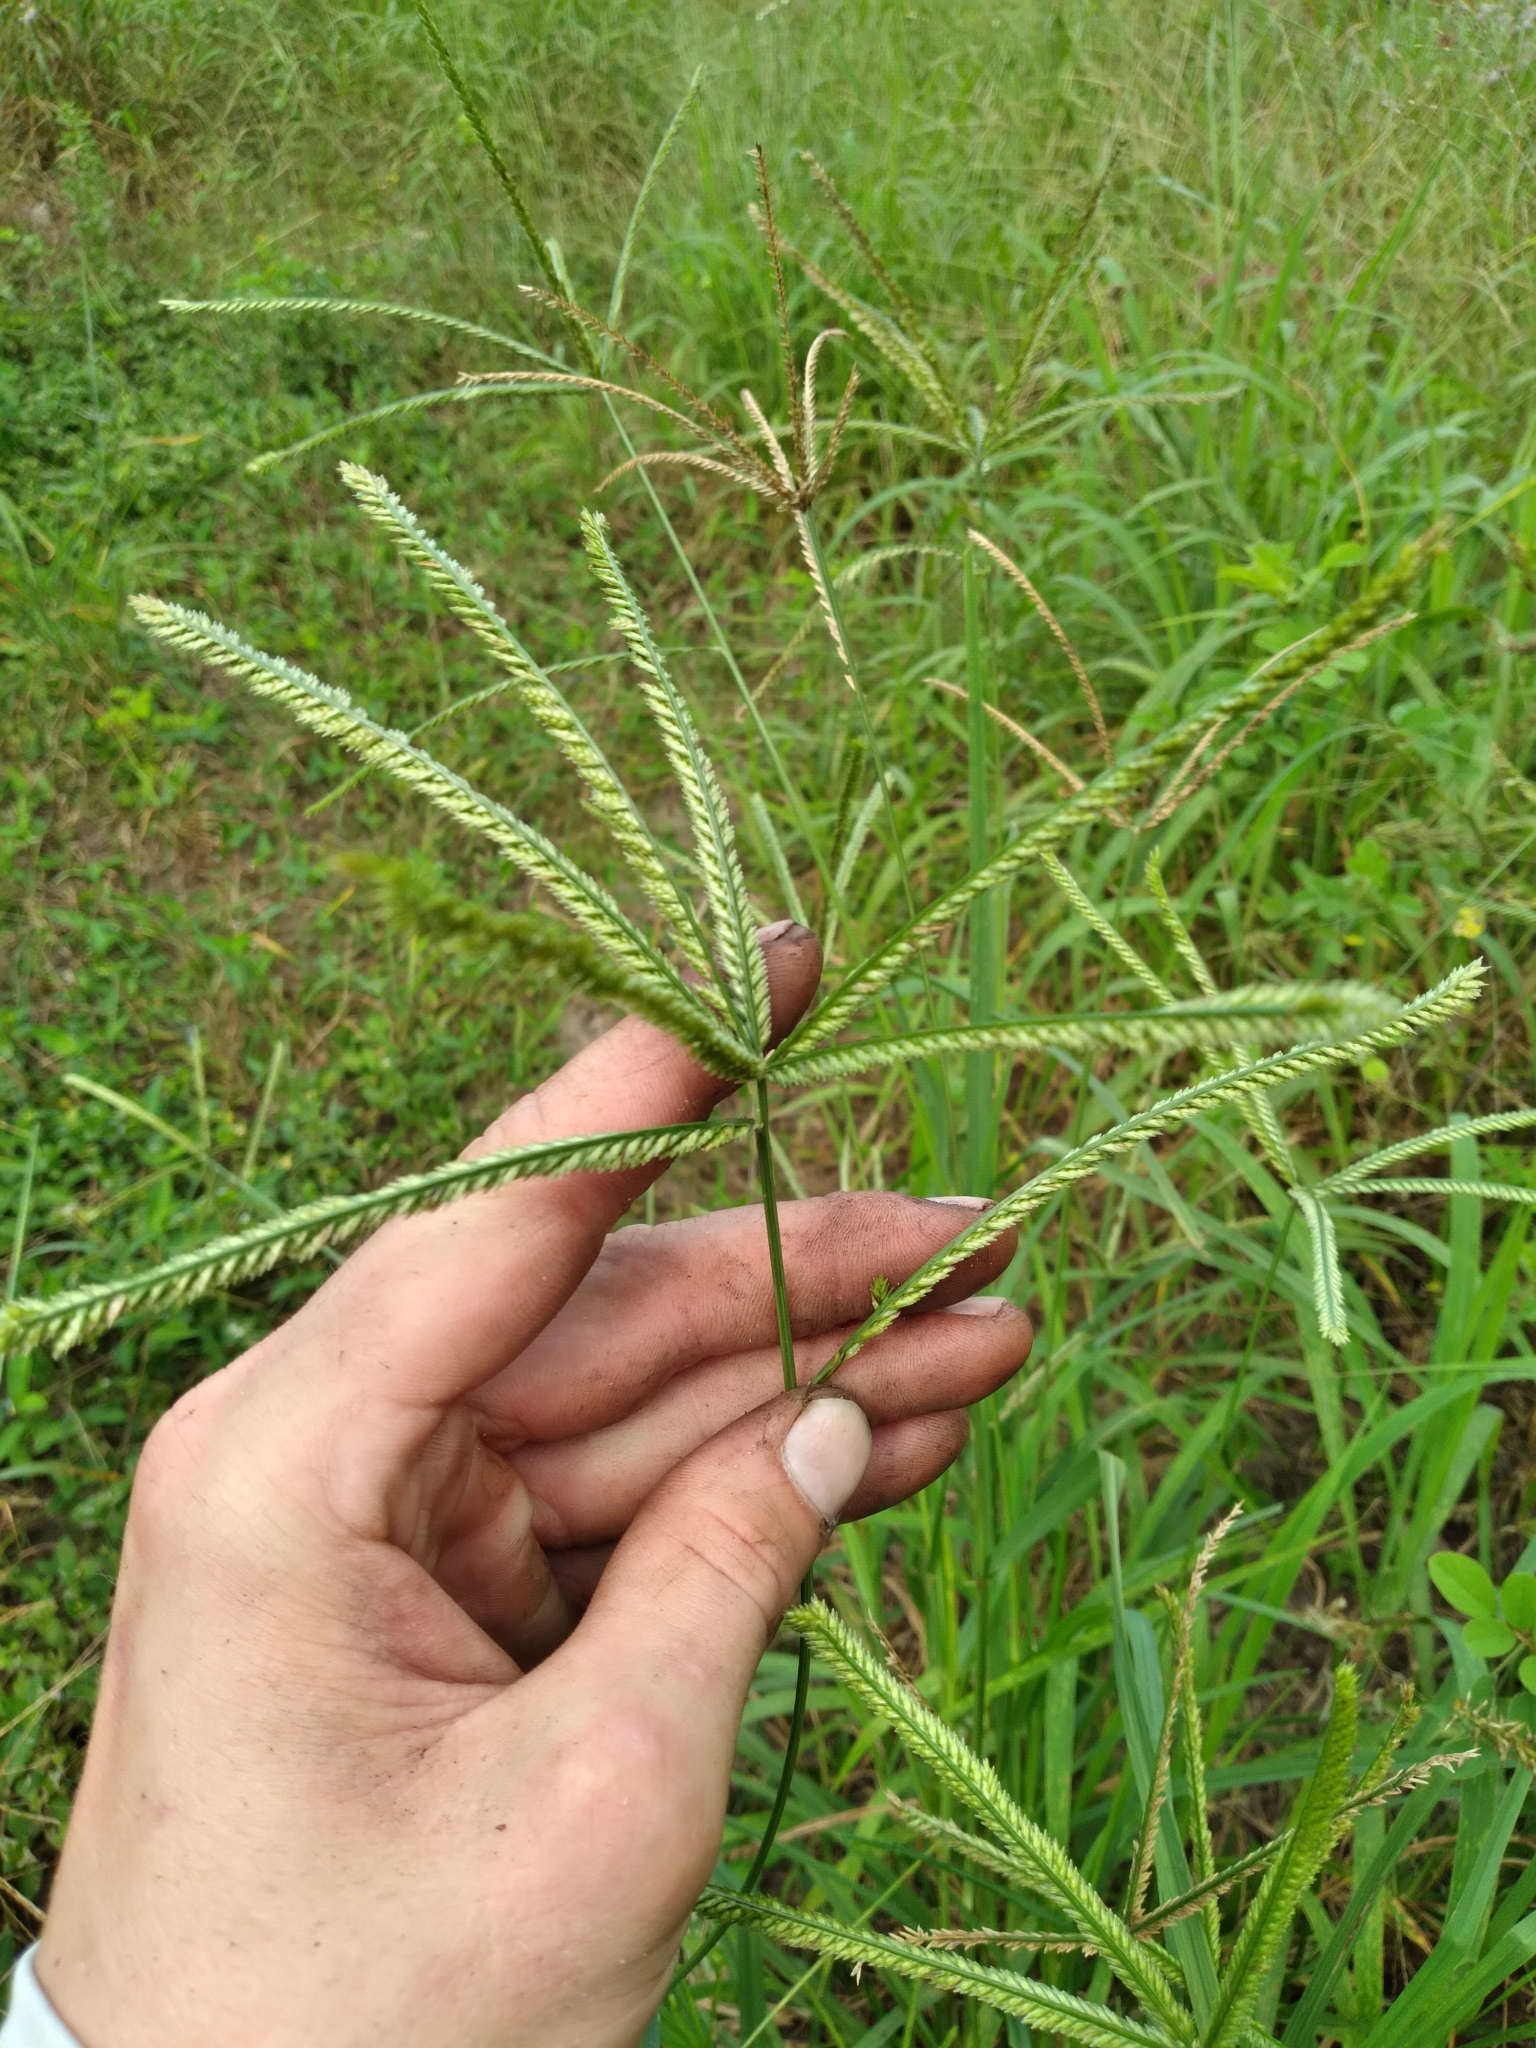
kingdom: Plantae
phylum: Tracheophyta
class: Liliopsida
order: Poales
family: Poaceae
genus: Eleusine
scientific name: Eleusine indica
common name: Yard-grass
